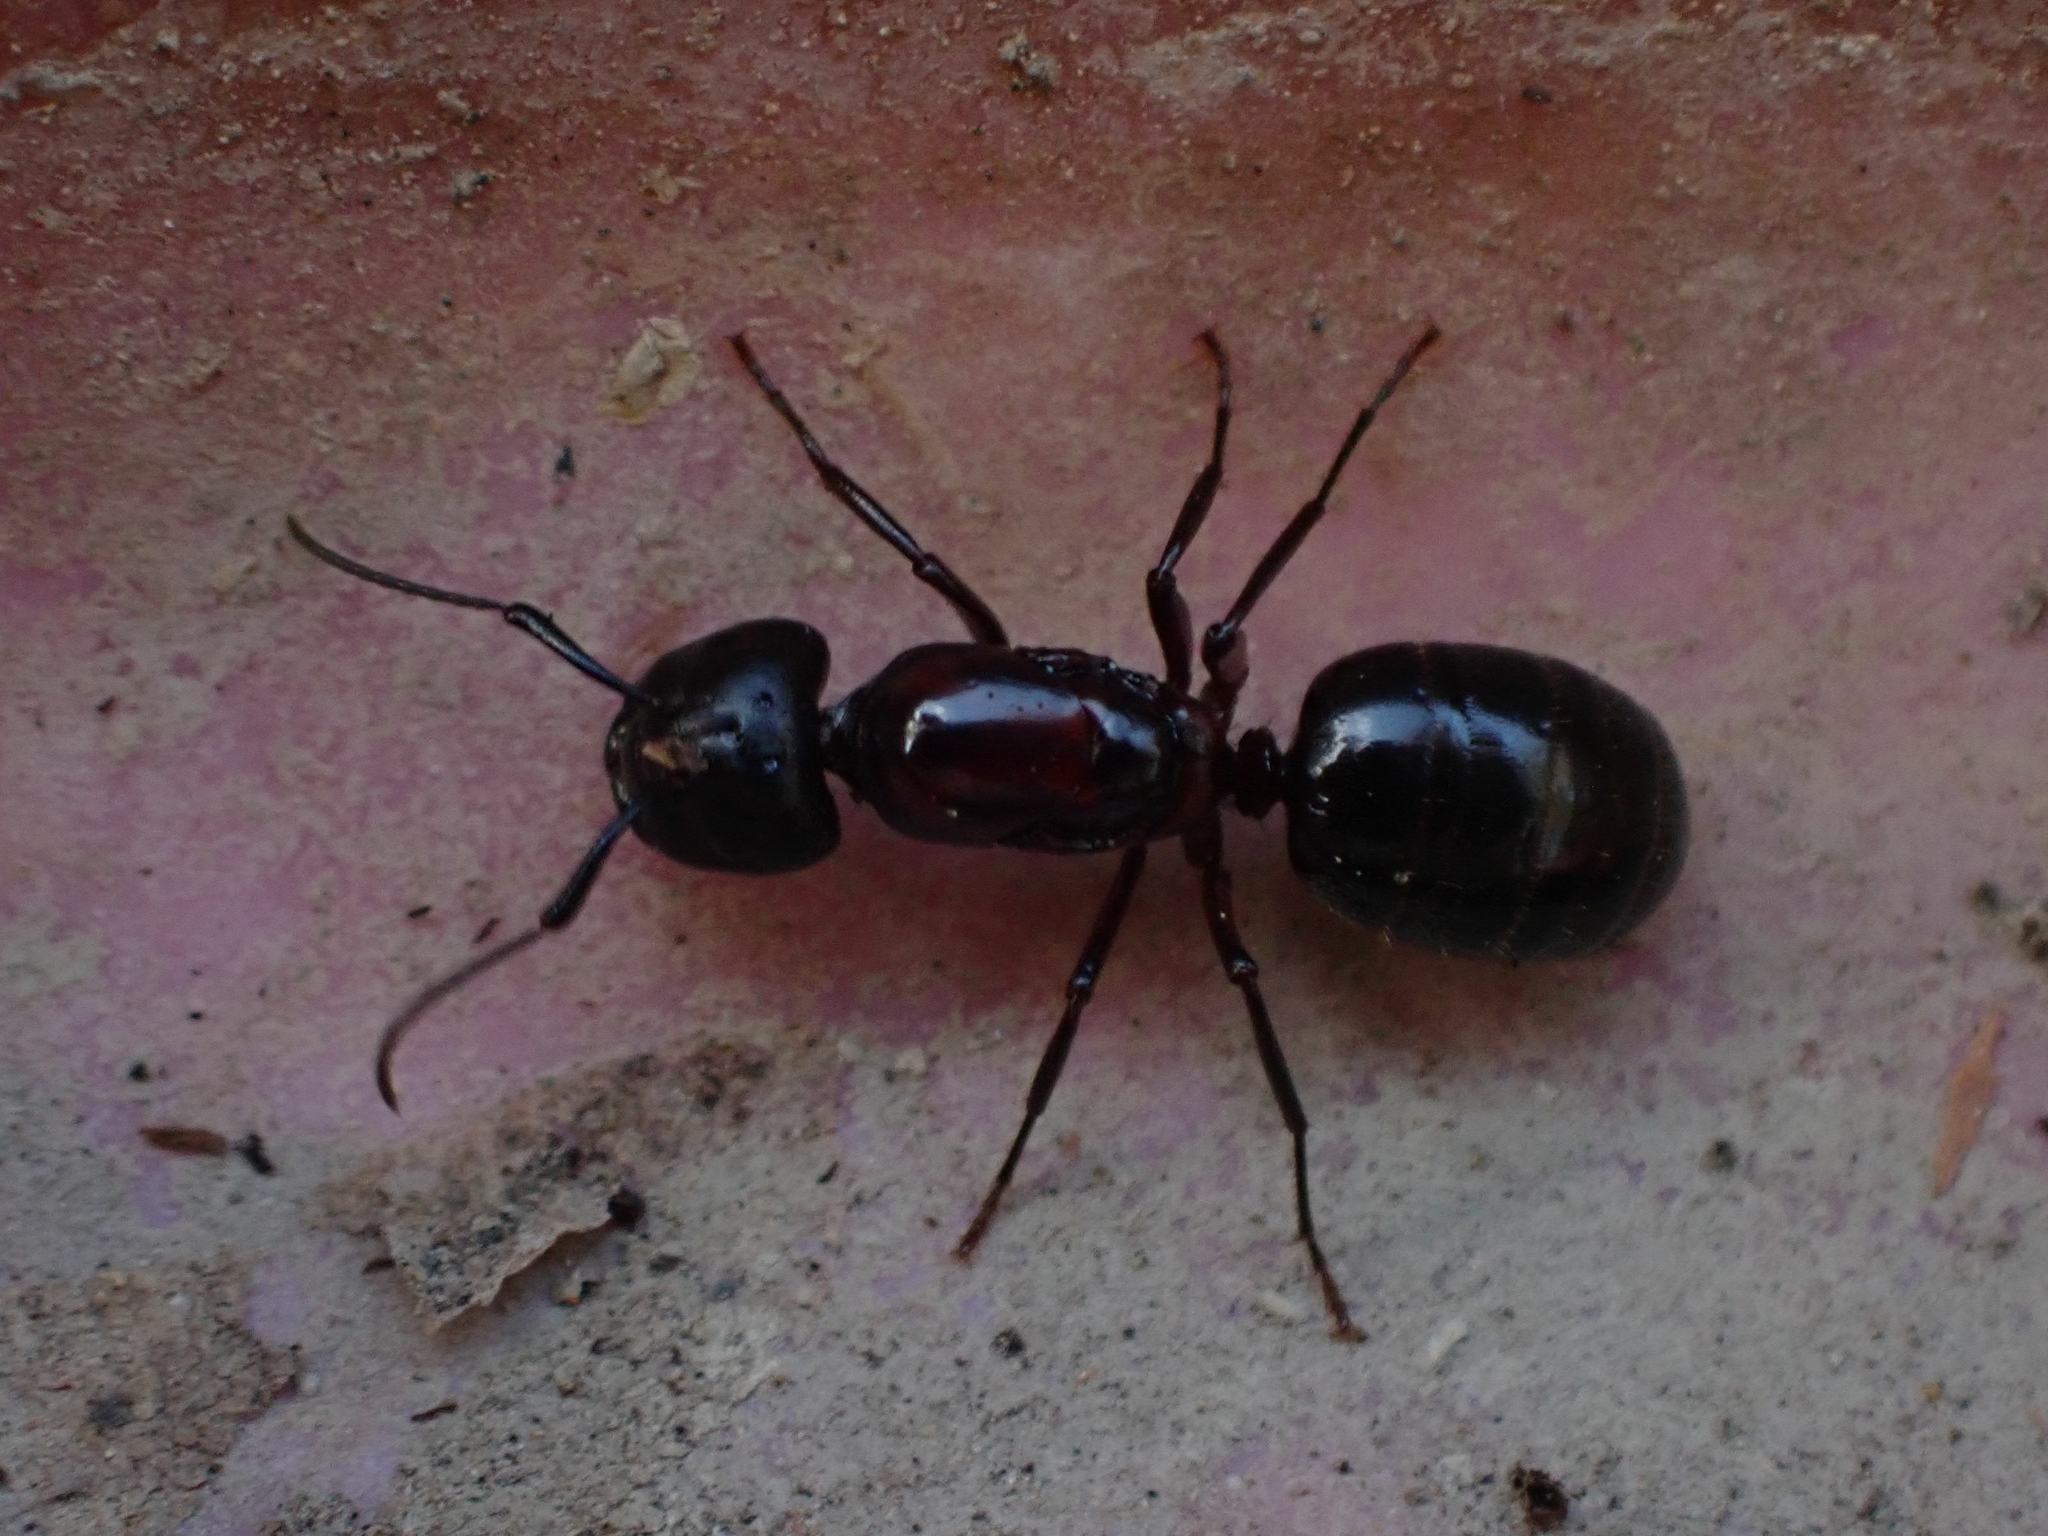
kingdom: Animalia
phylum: Arthropoda
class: Insecta
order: Hymenoptera
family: Formicidae
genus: Camponotus
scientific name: Camponotus novaeboracensis
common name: New york carpenter ant
